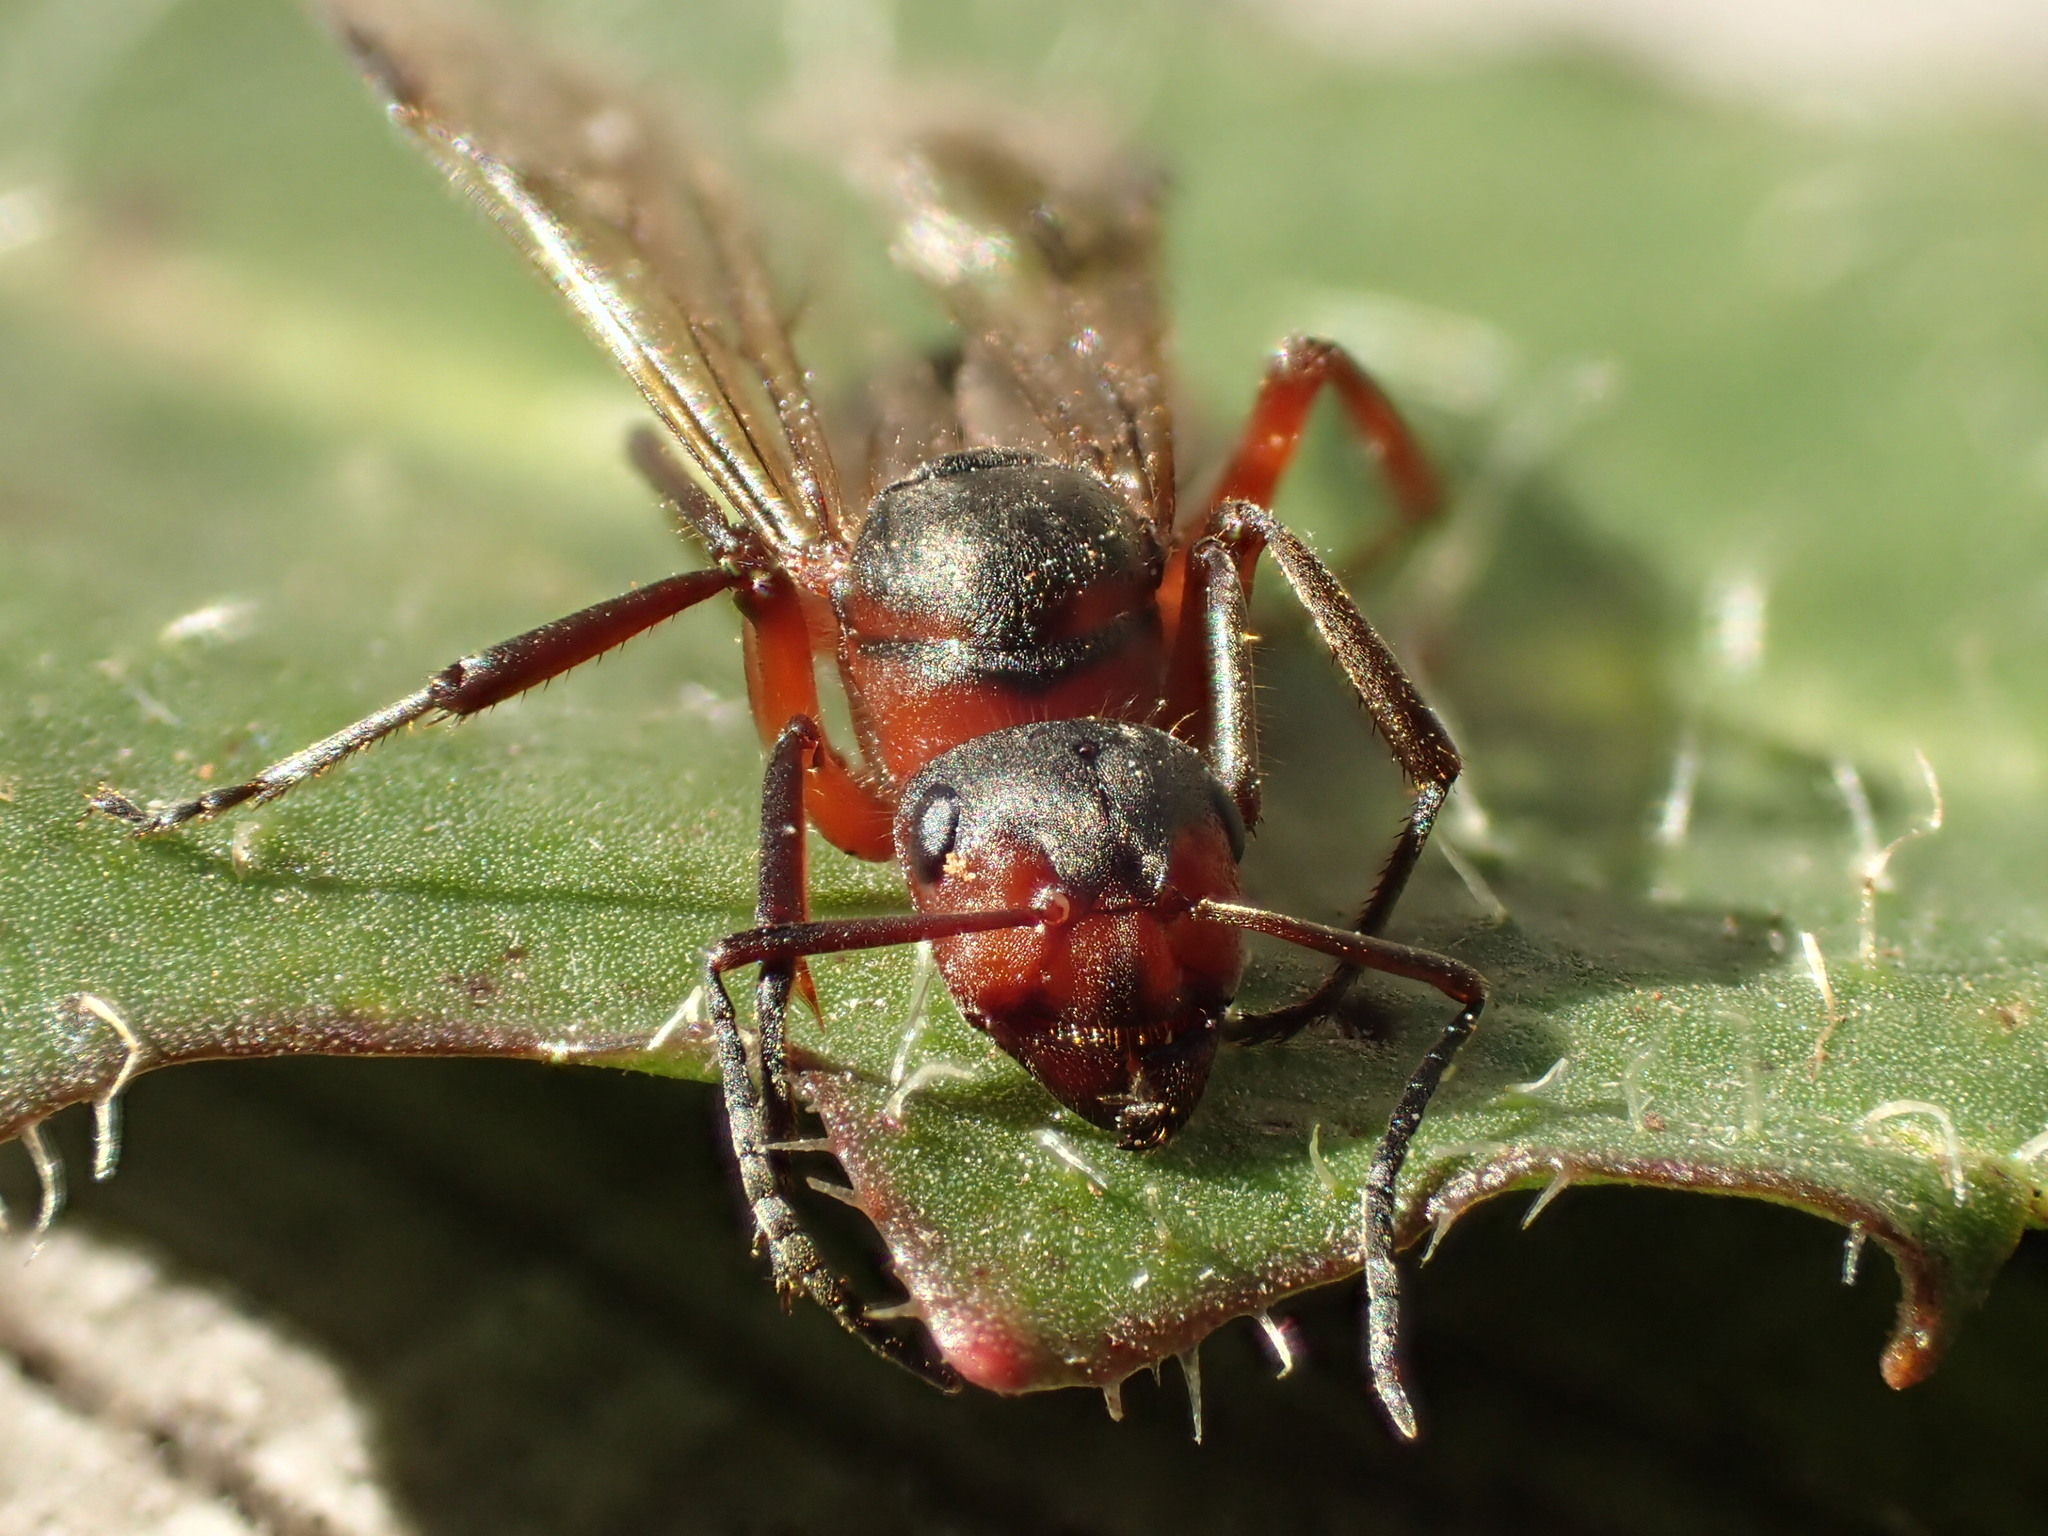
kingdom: Animalia
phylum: Arthropoda
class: Insecta
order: Hymenoptera
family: Formicidae
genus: Formica
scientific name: Formica pratensis
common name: European red wood ant
